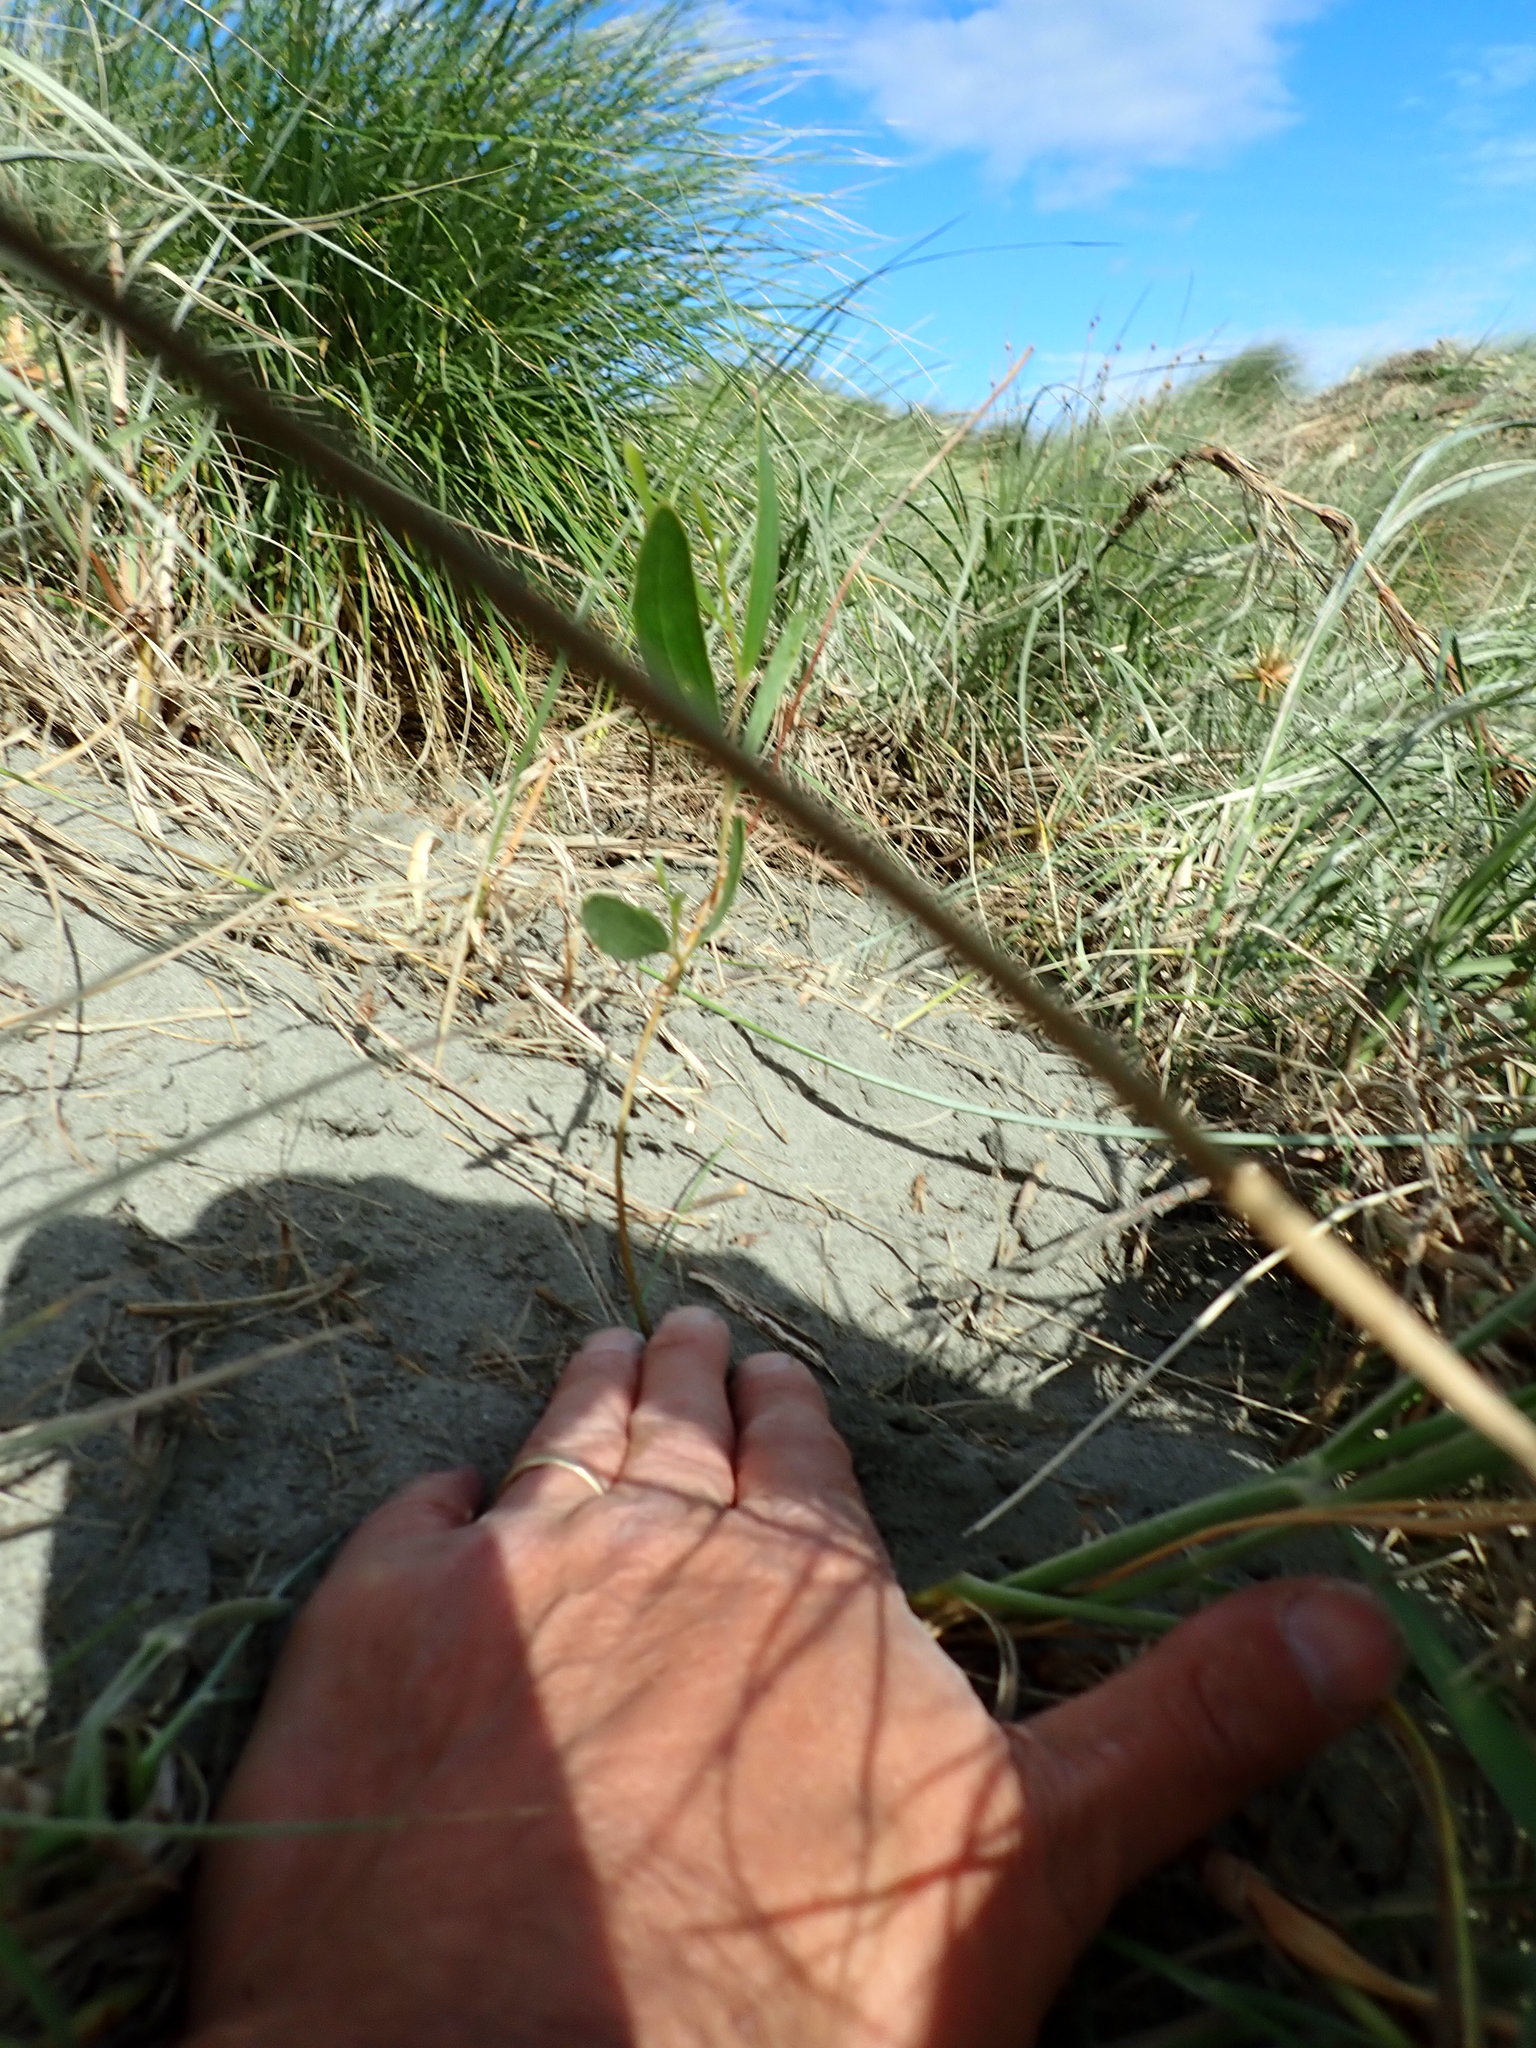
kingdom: Plantae
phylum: Tracheophyta
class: Magnoliopsida
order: Fabales
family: Fabaceae
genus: Acacia
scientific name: Acacia longifolia
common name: Sydney golden wattle
